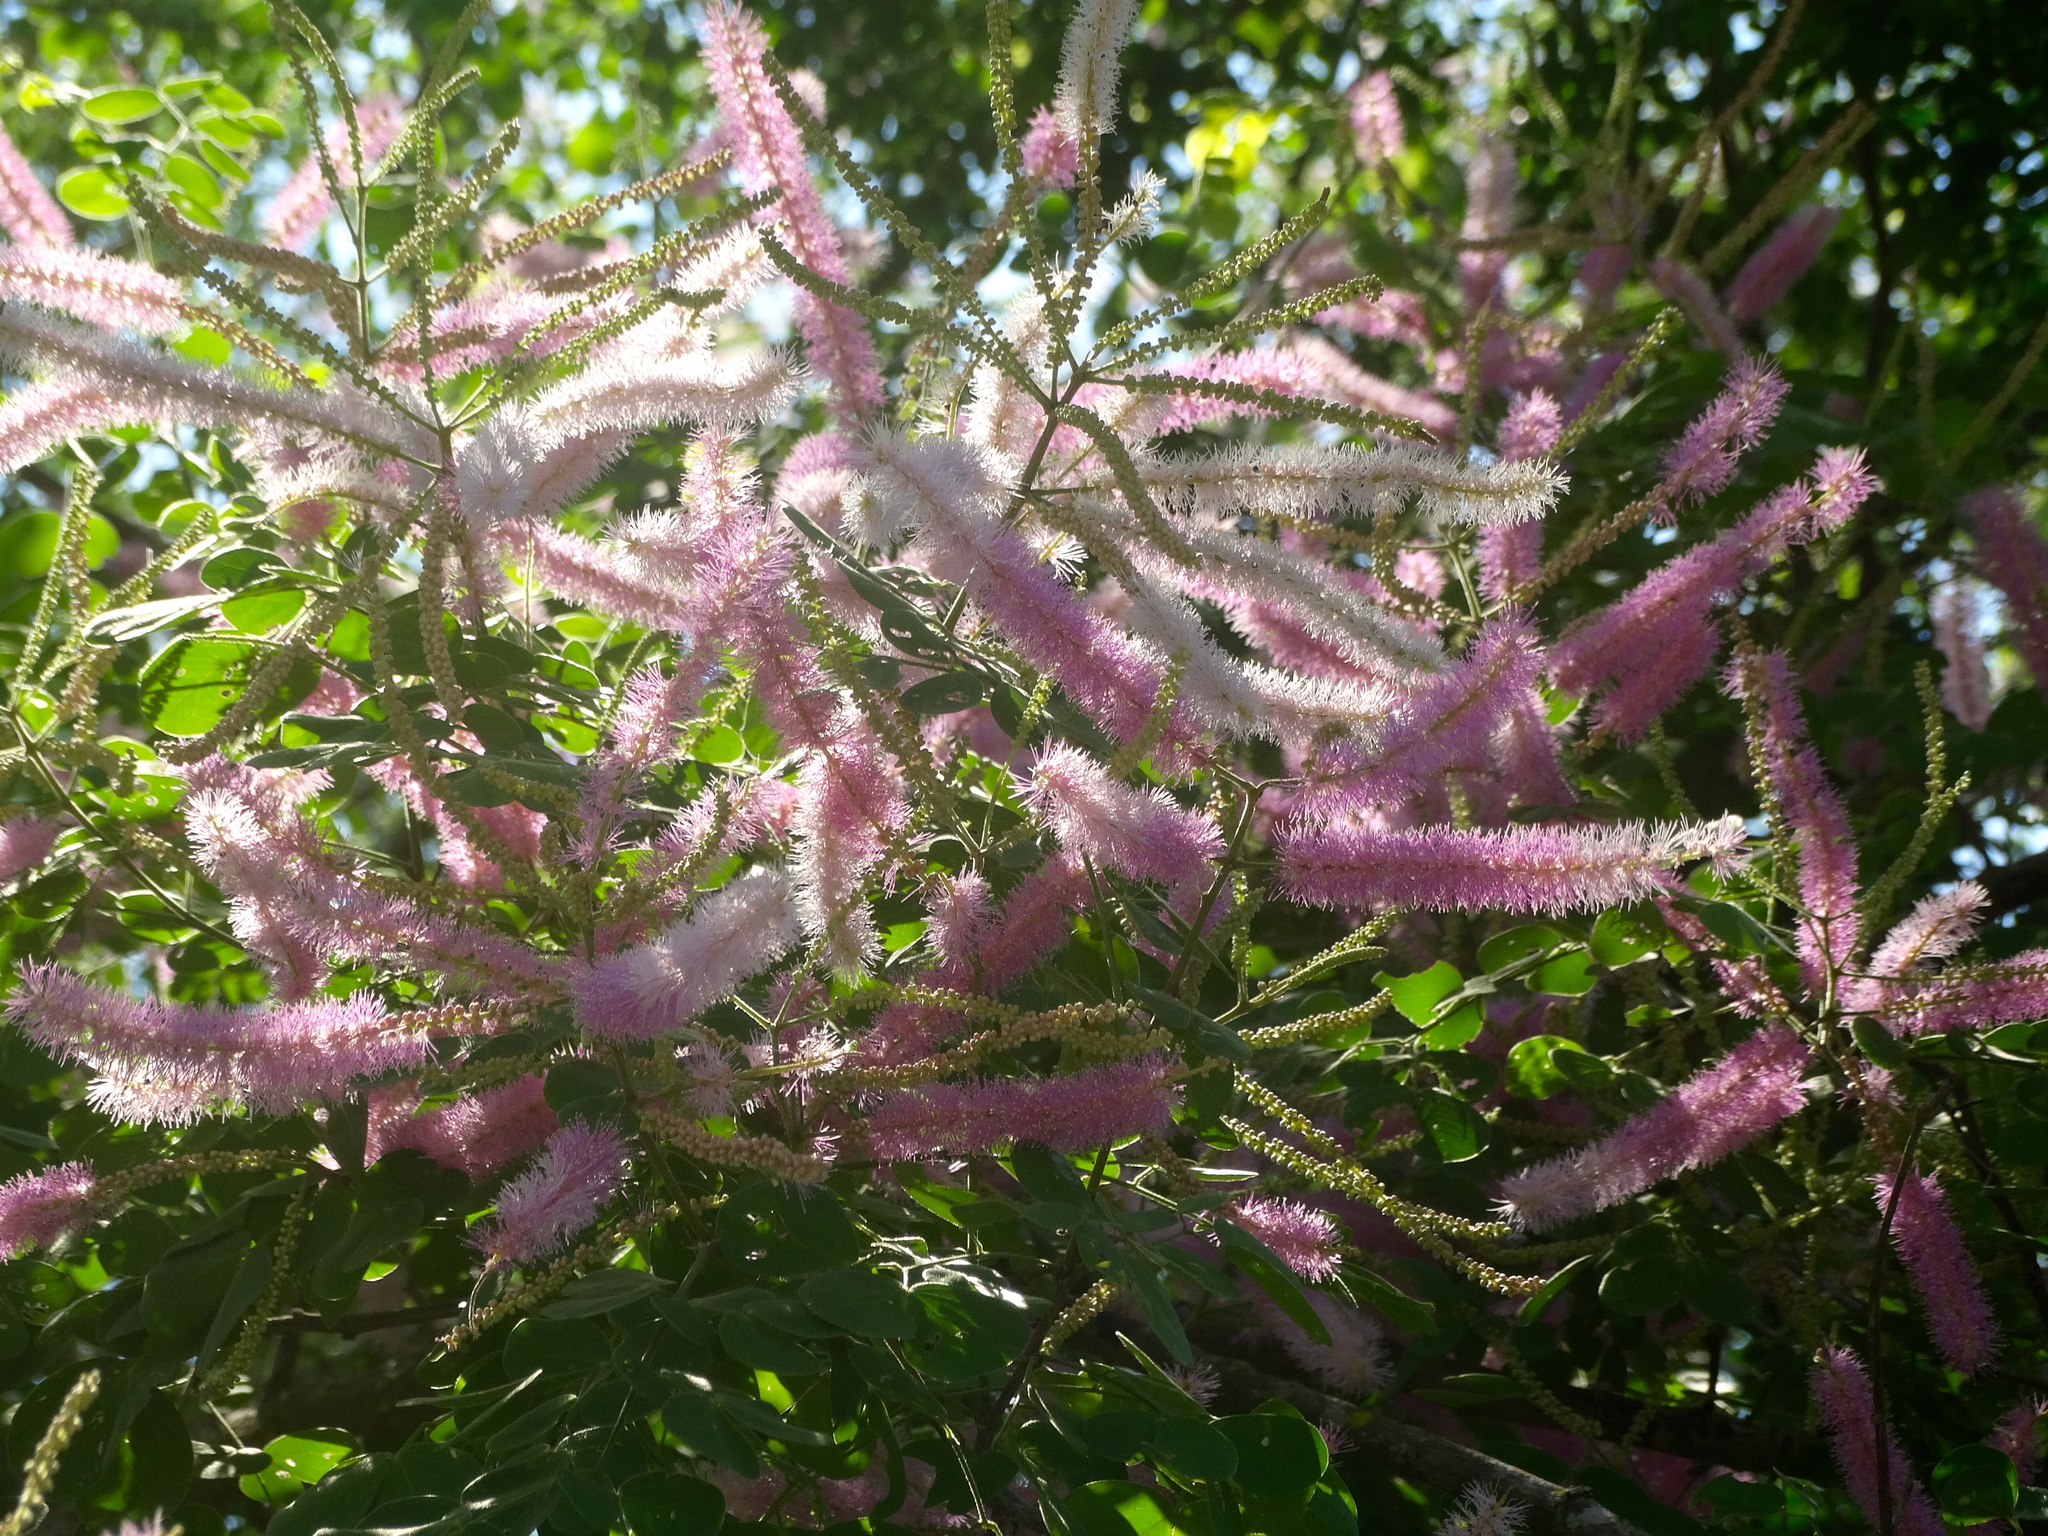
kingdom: Plantae
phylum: Tracheophyta
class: Magnoliopsida
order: Fabales
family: Fabaceae
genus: Mimosa
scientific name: Mimosa spirocarpa
